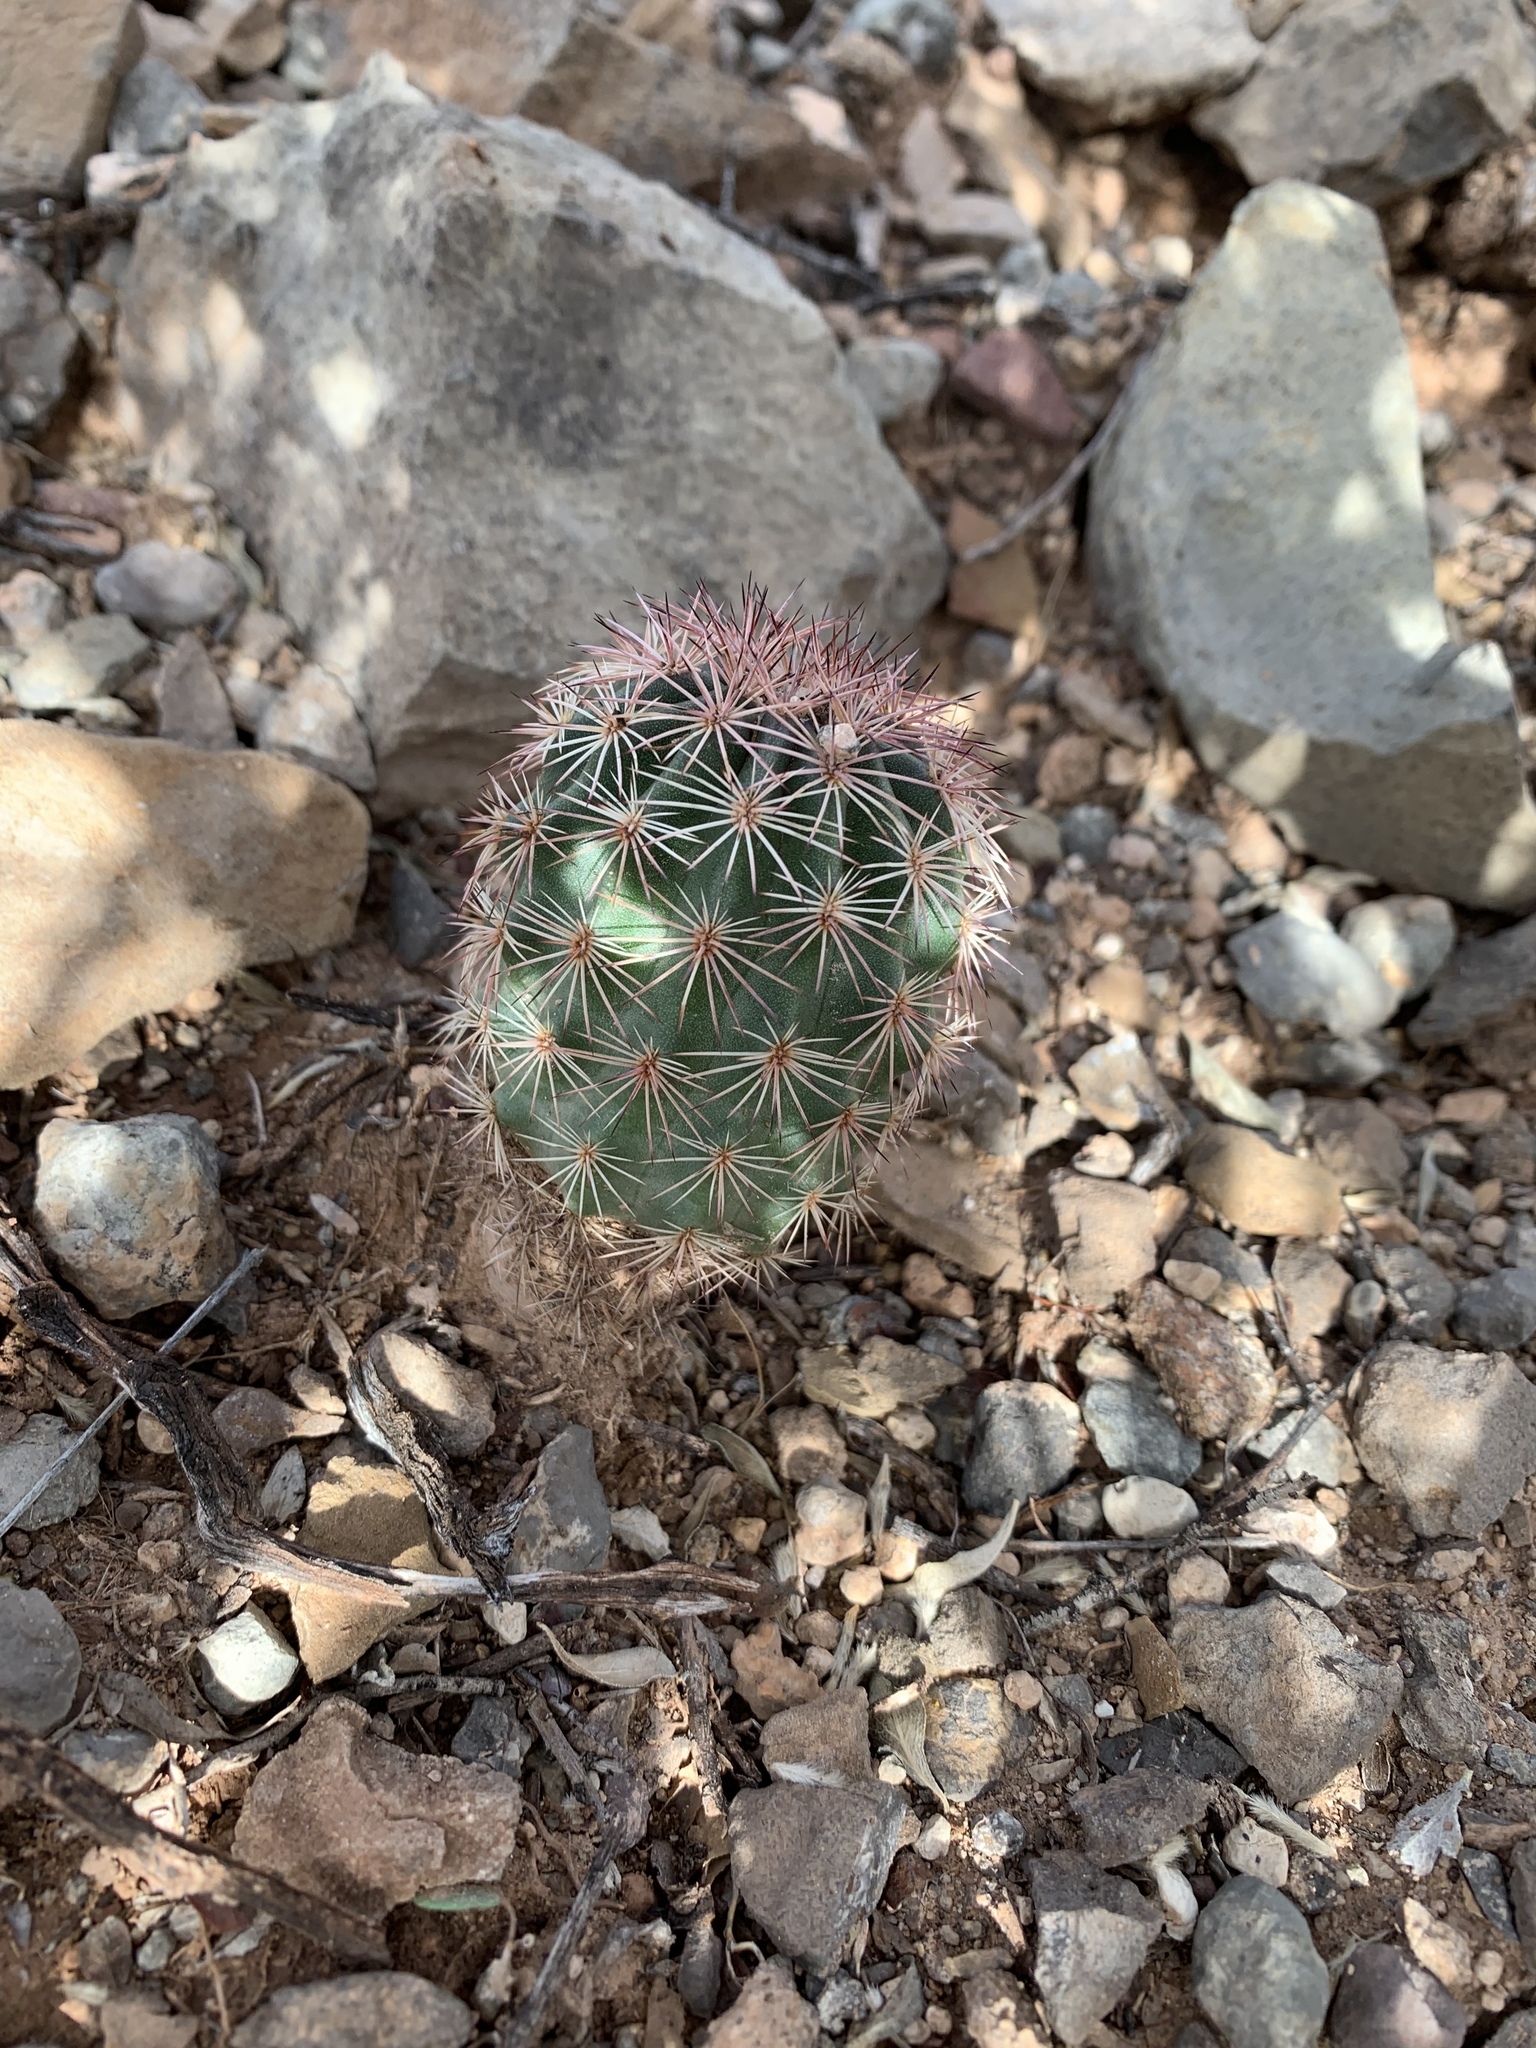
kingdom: Plantae
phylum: Tracheophyta
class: Magnoliopsida
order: Caryophyllales
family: Cactaceae
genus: Echinocereus
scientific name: Echinocereus dasyacanthus
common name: Spiny hedgehog cactus
